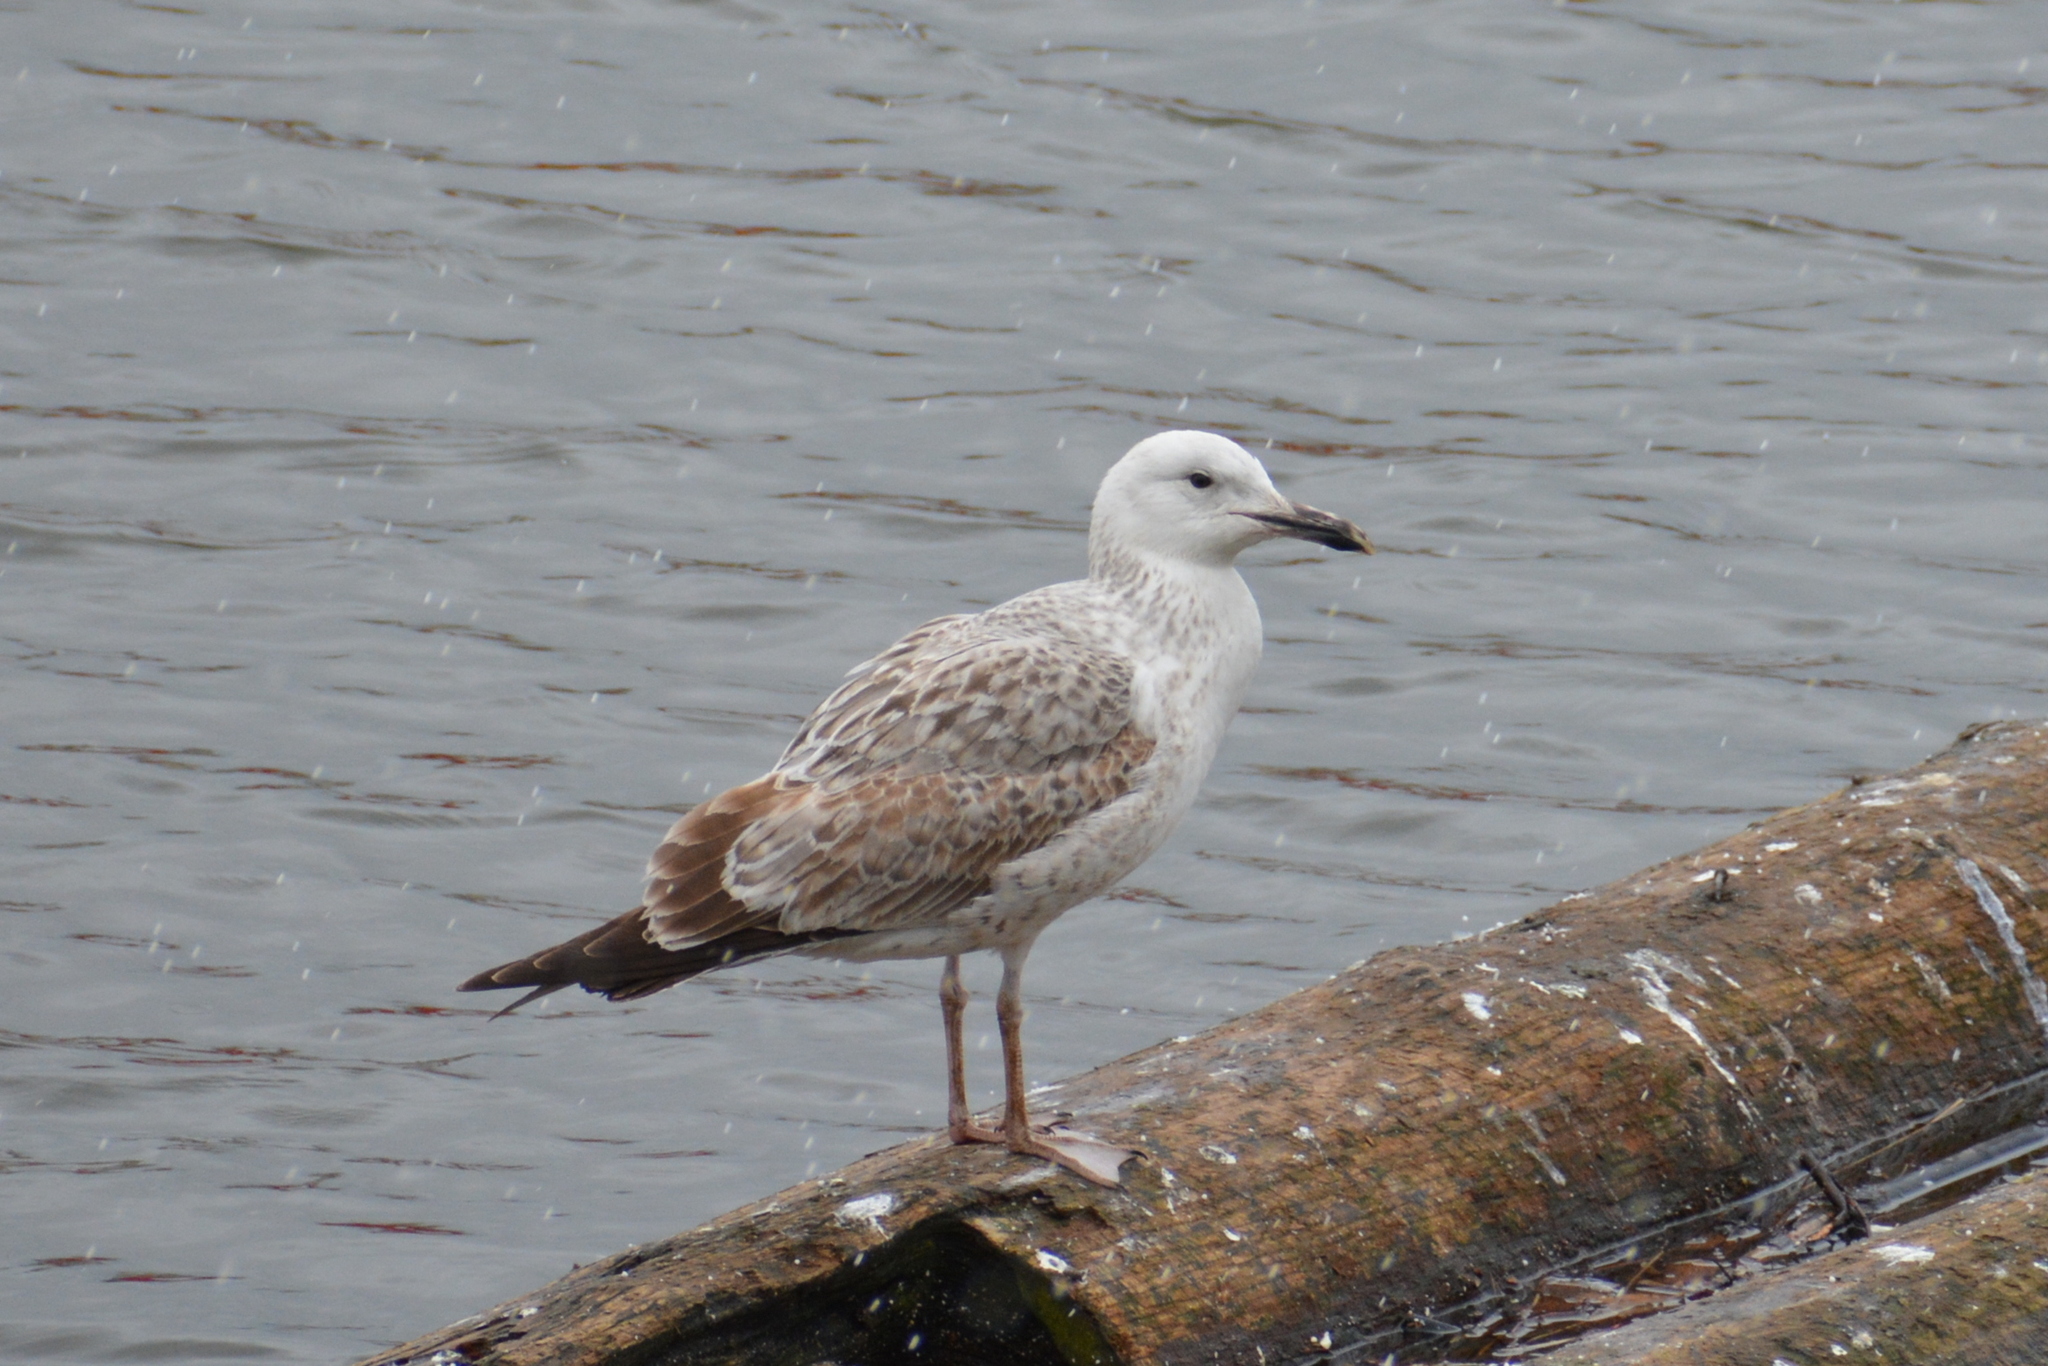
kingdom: Animalia
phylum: Chordata
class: Aves
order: Charadriiformes
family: Laridae
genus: Larus
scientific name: Larus cachinnans
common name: Caspian gull
